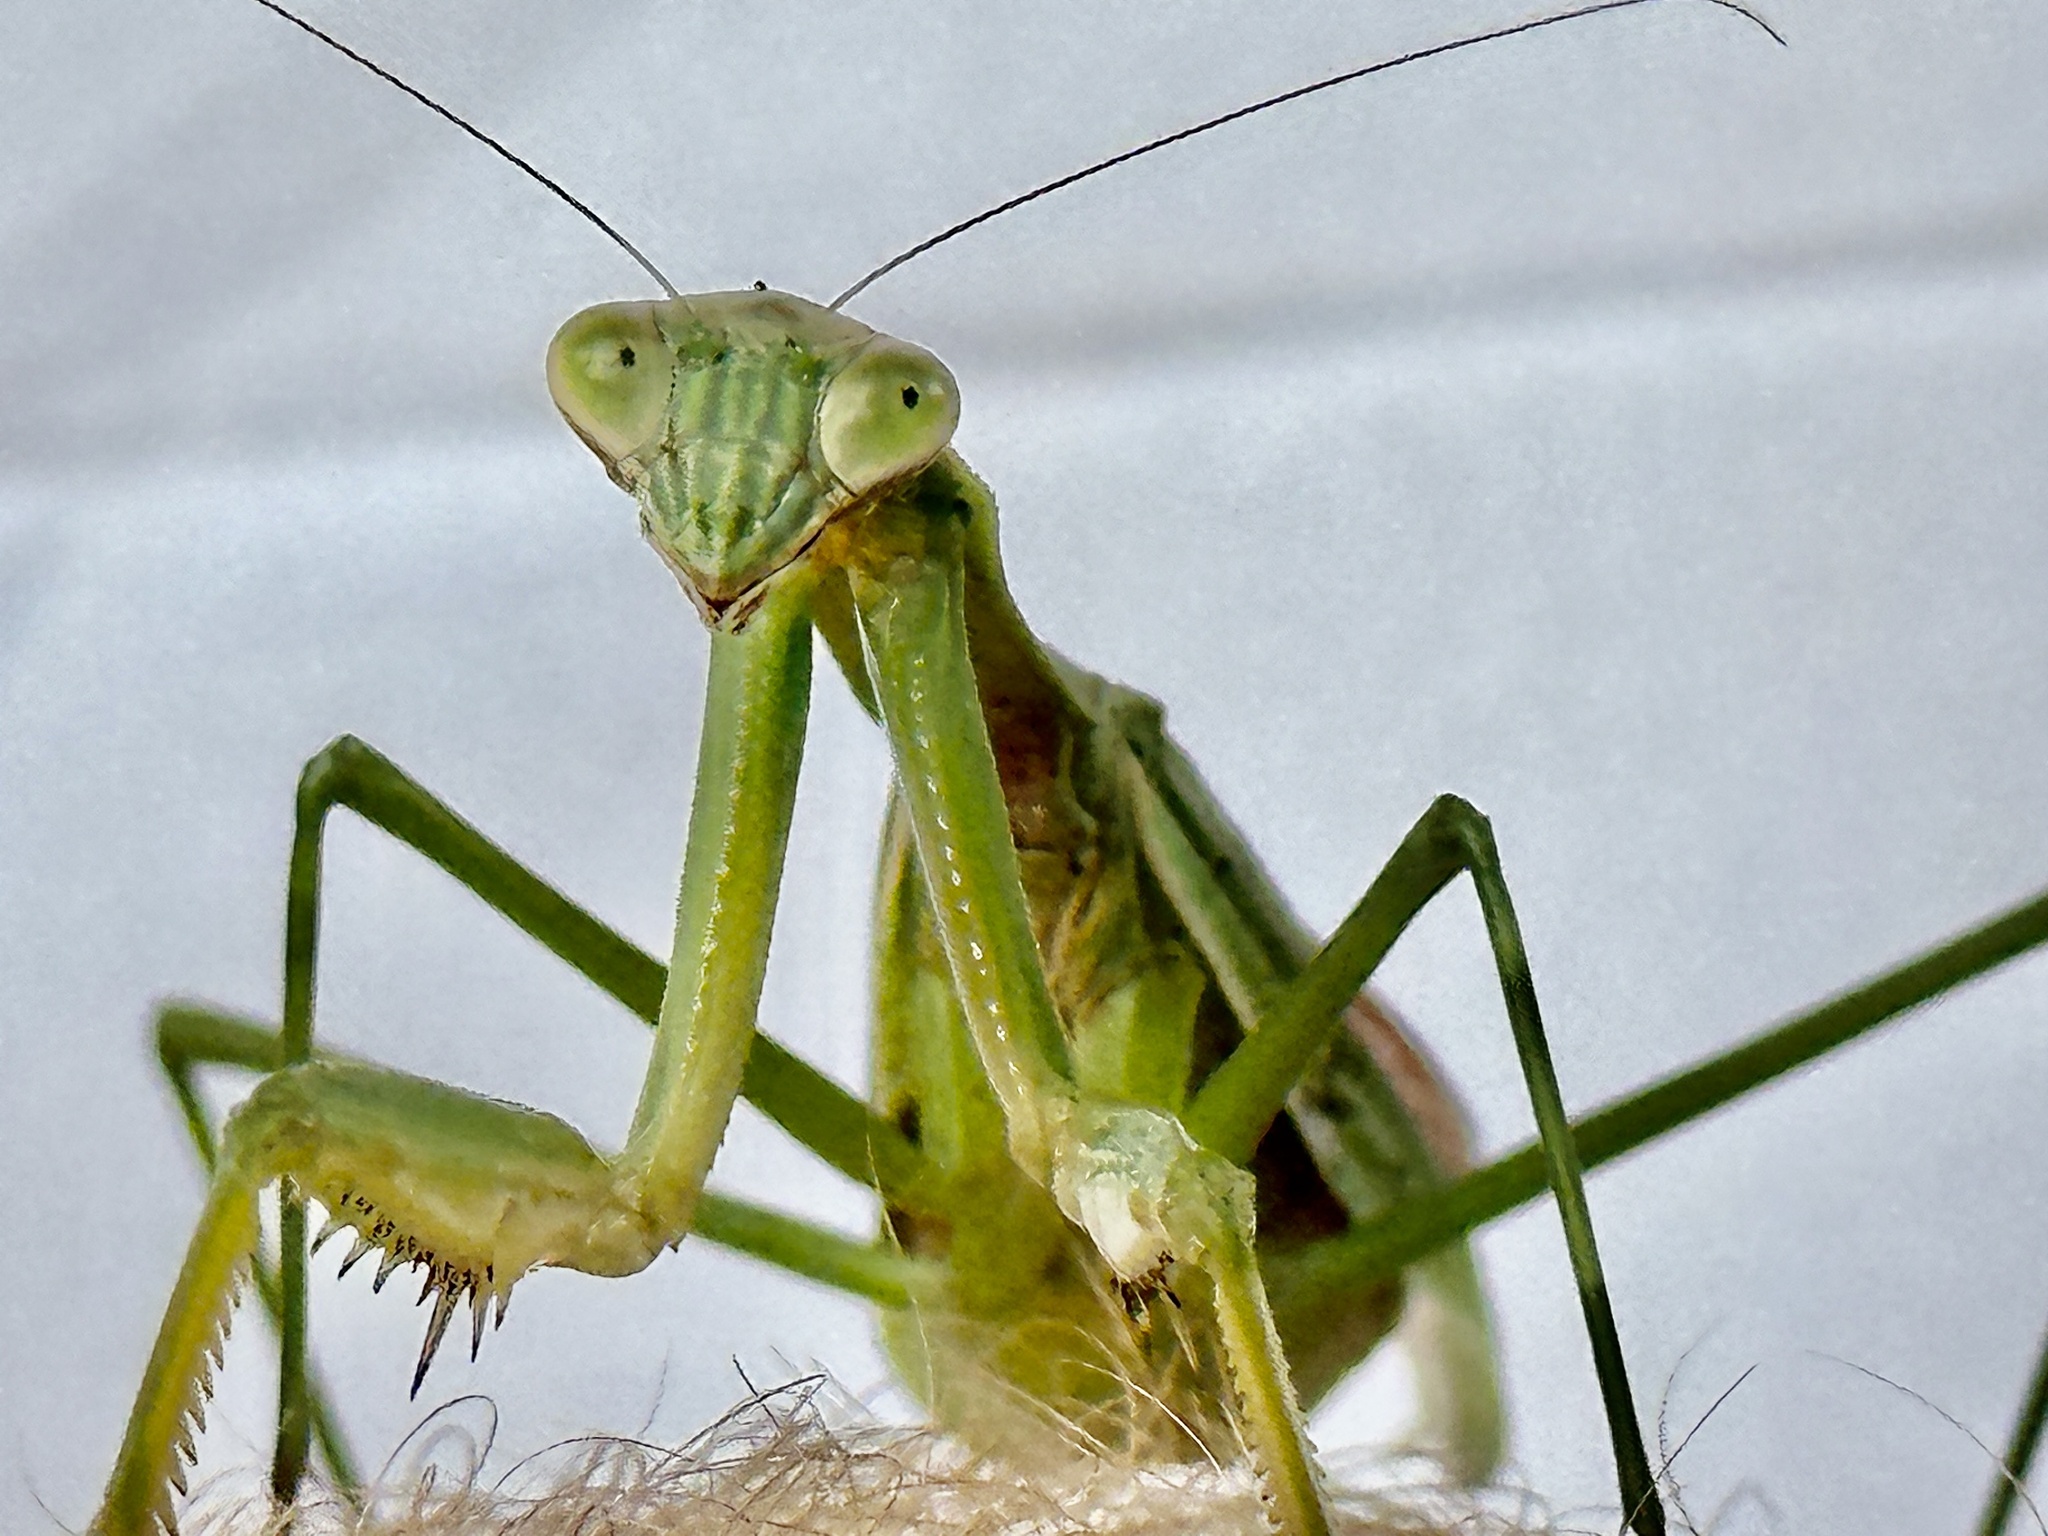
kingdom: Animalia
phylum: Arthropoda
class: Insecta
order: Mantodea
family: Mantidae
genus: Tenodera
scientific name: Tenodera sinensis
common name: Chinese mantis
